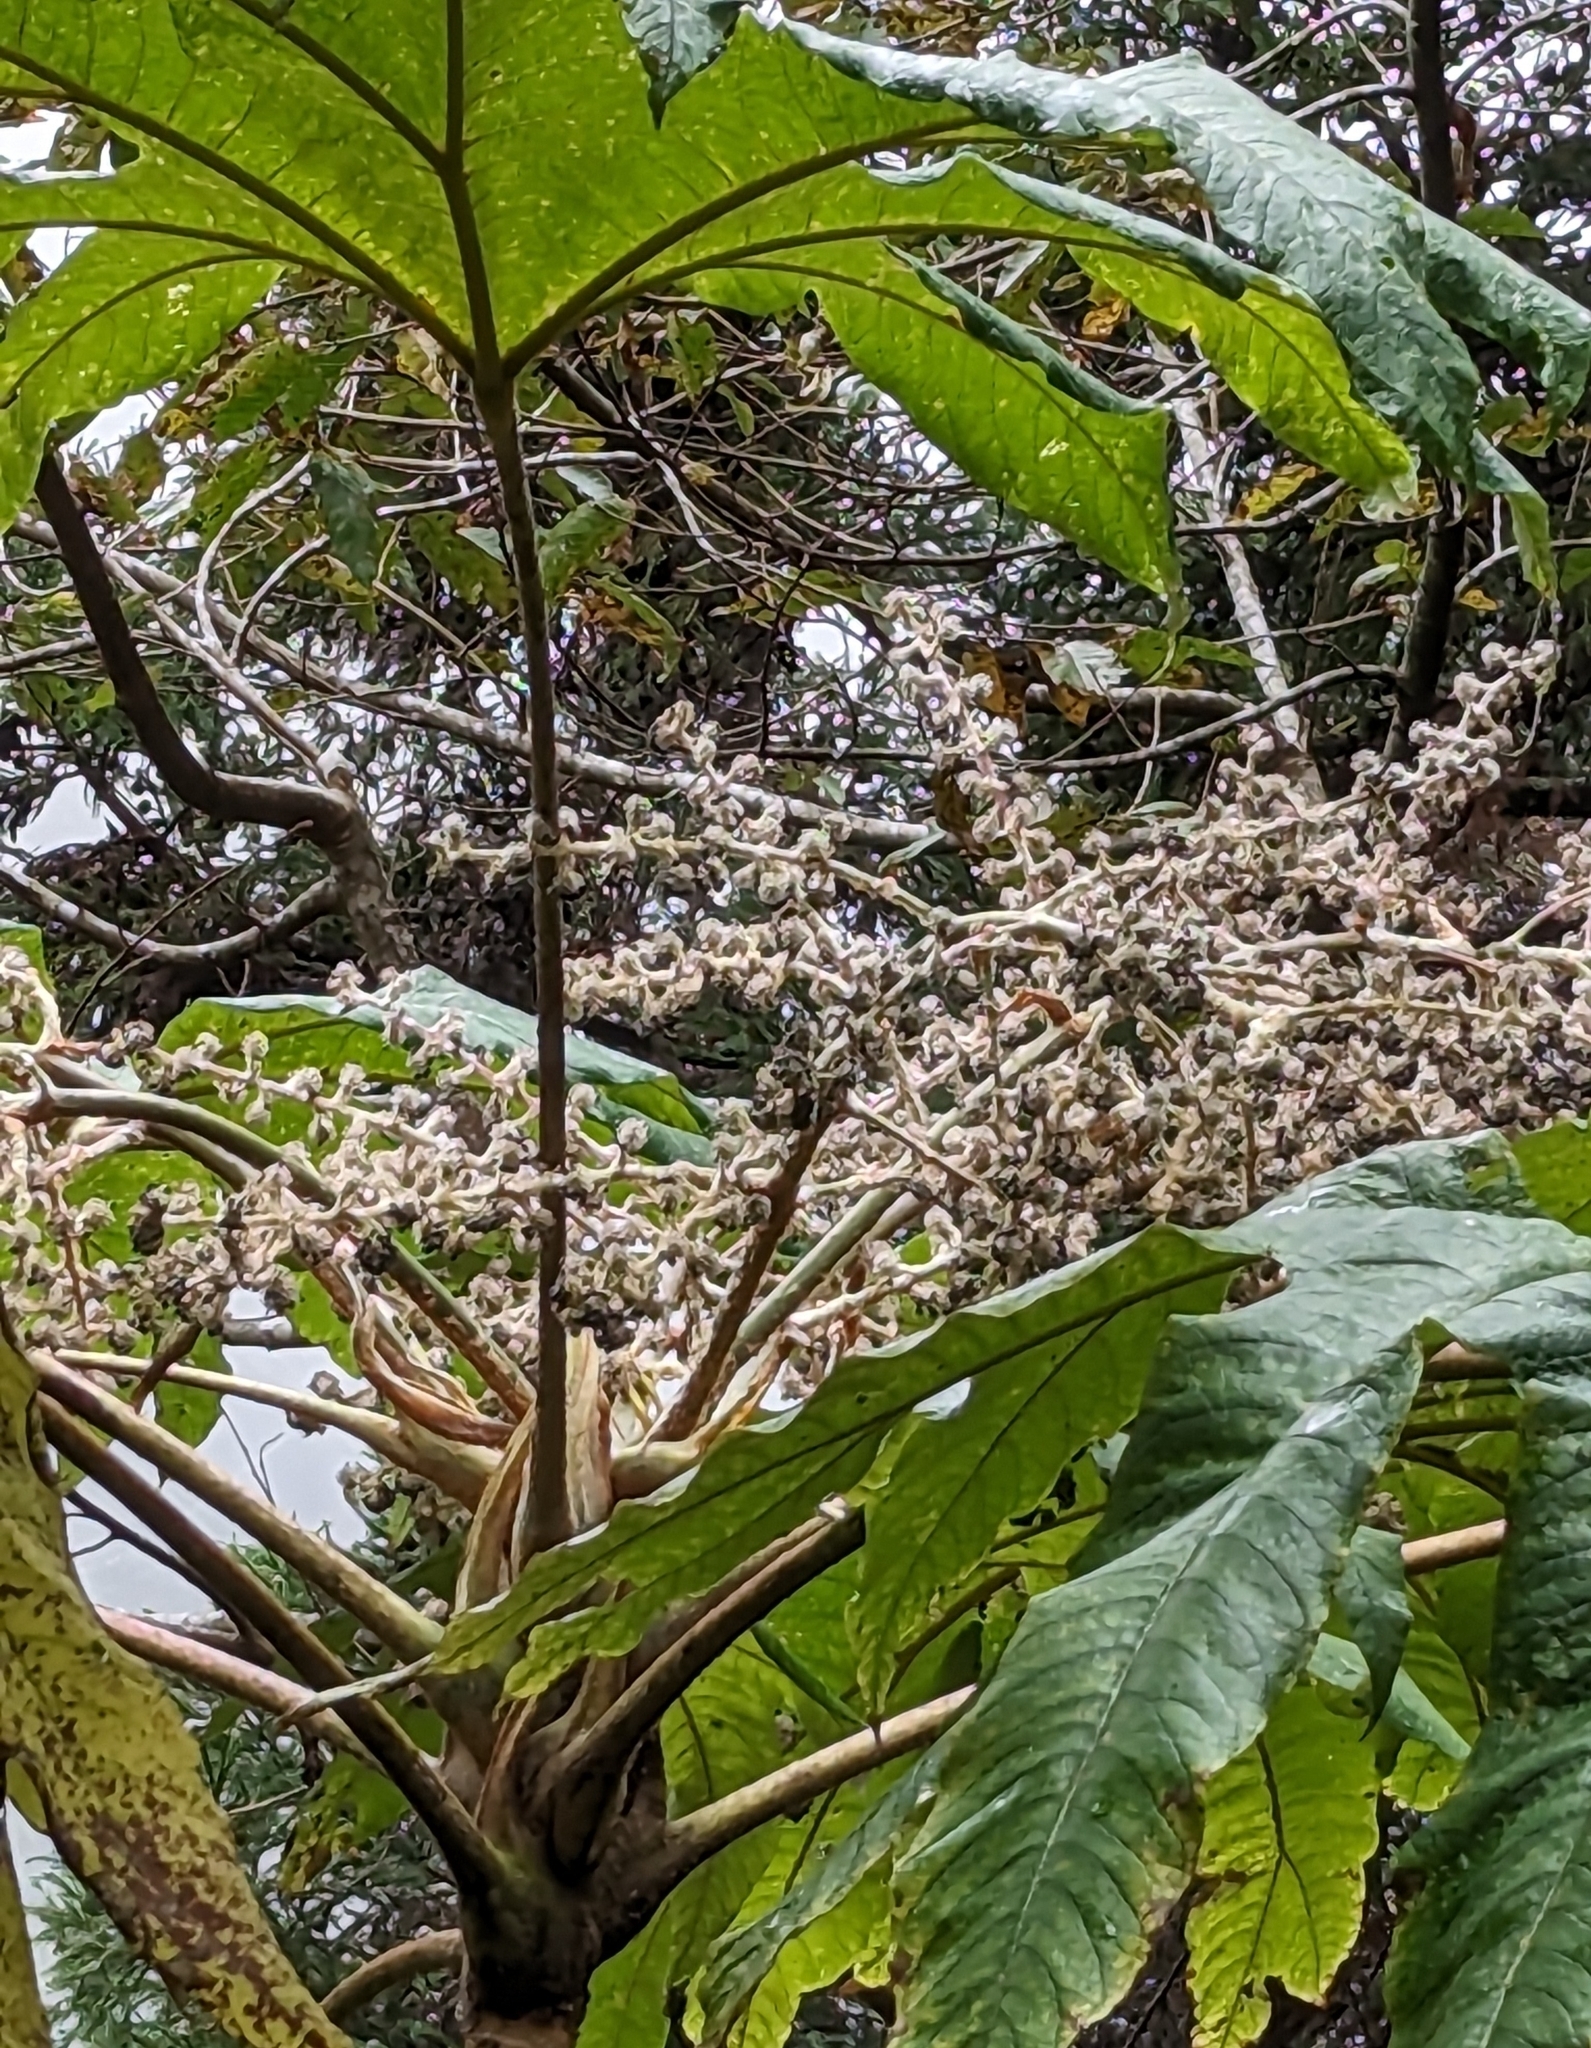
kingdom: Plantae
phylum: Tracheophyta
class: Magnoliopsida
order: Apiales
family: Araliaceae
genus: Tetrapanax
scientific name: Tetrapanax papyrifer
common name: Rice-paper plant
